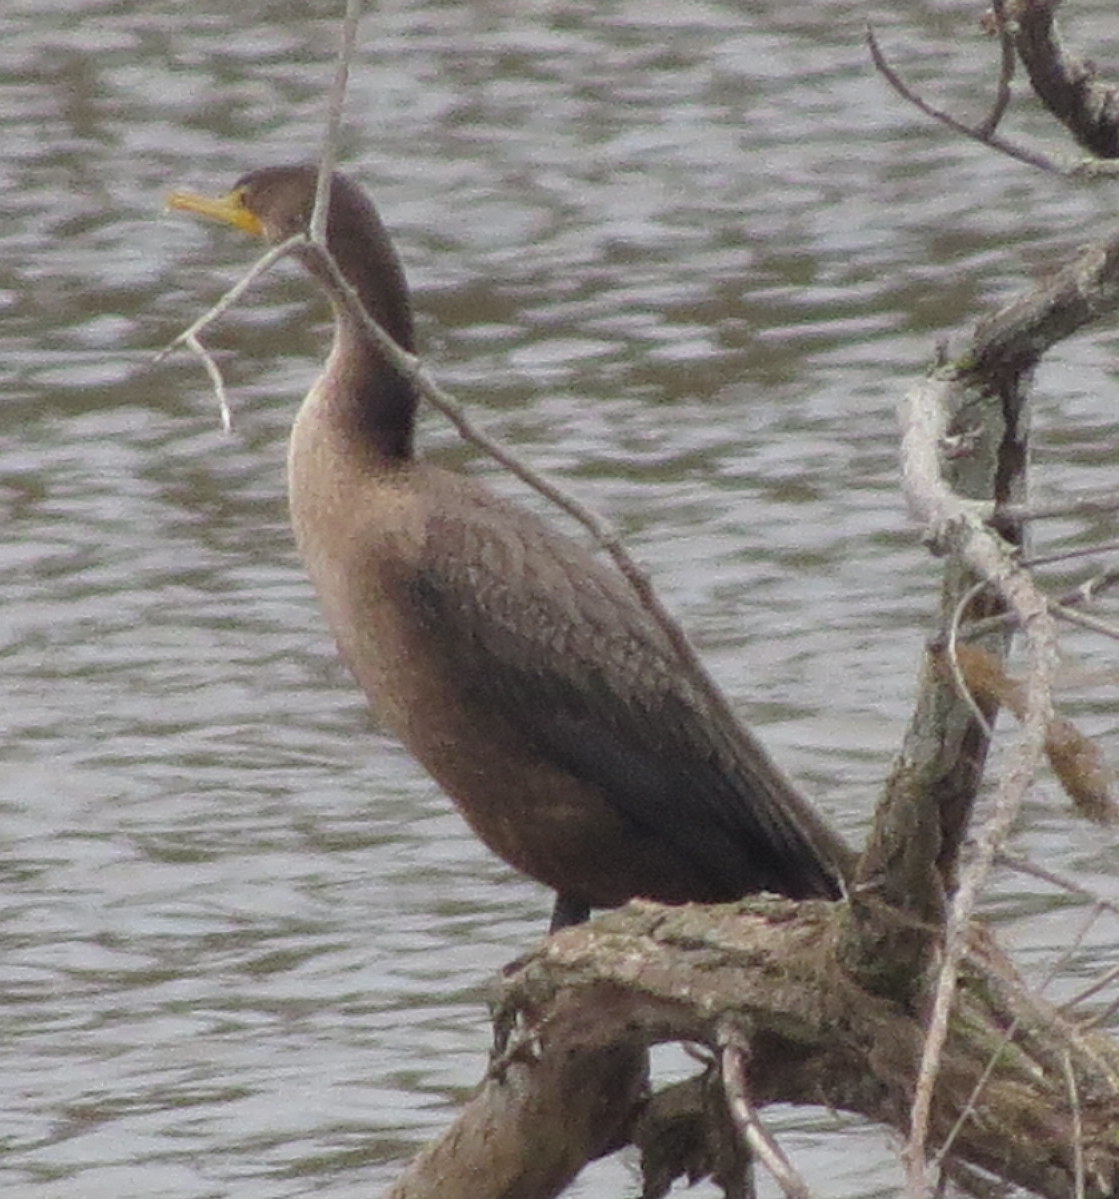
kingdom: Animalia
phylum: Chordata
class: Aves
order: Suliformes
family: Phalacrocoracidae
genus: Phalacrocorax
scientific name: Phalacrocorax auritus
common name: Double-crested cormorant
